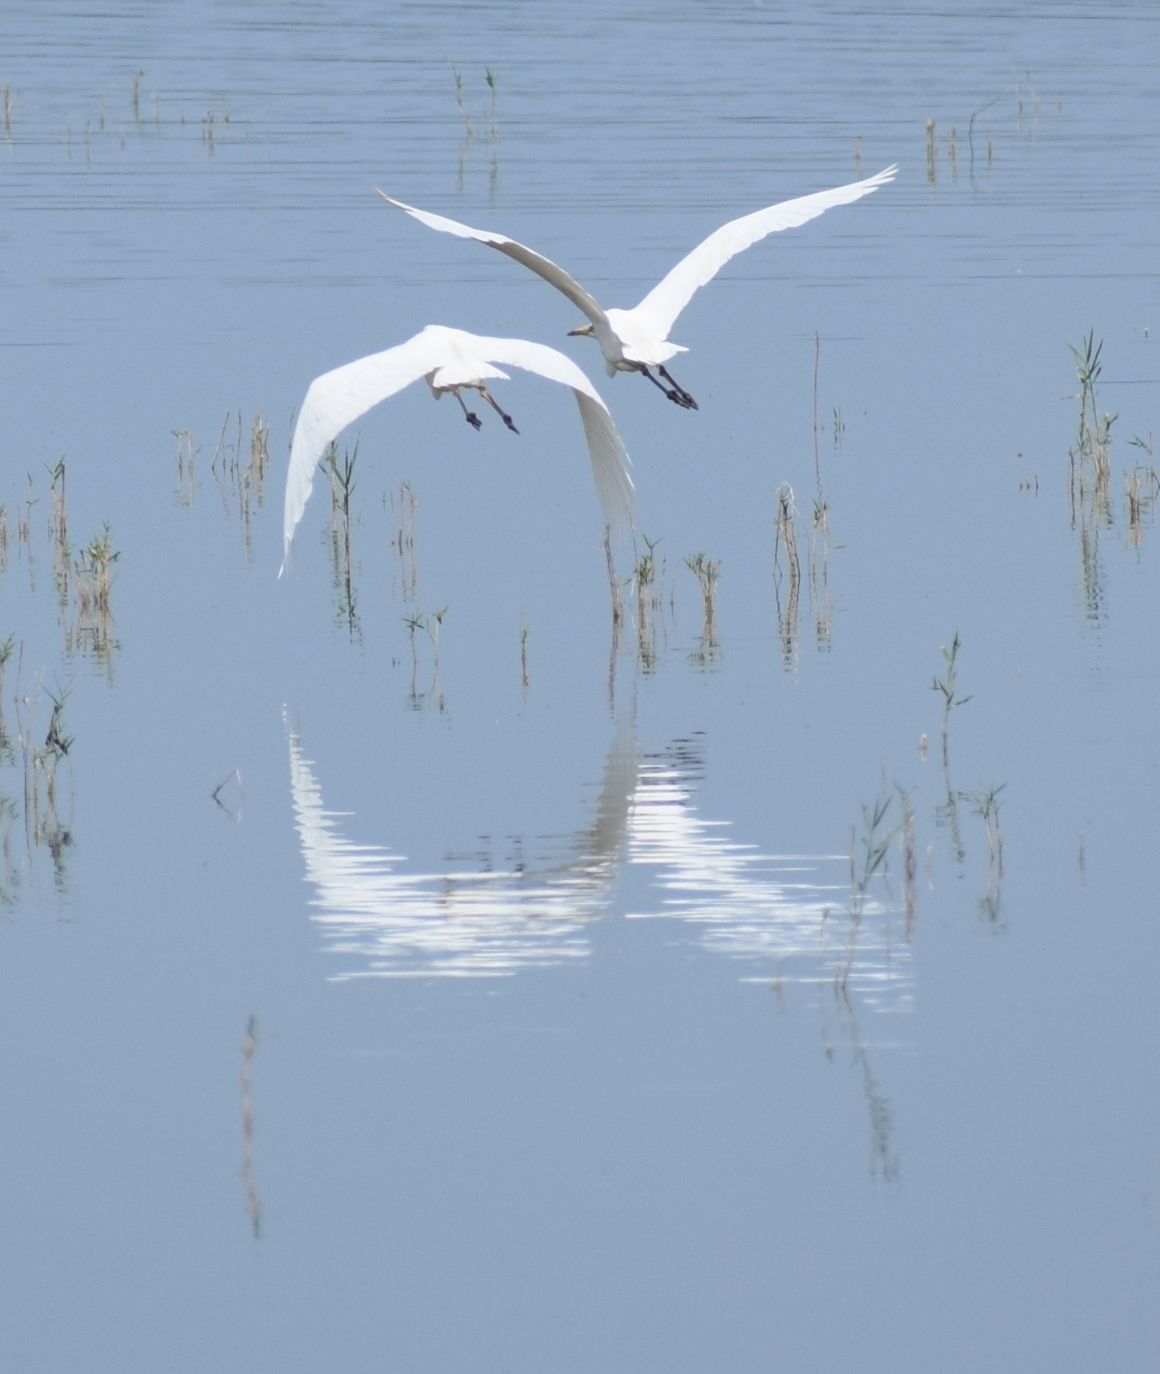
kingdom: Animalia
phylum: Chordata
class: Aves
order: Pelecaniformes
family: Ardeidae
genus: Ardea
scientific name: Ardea alba
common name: Great egret
